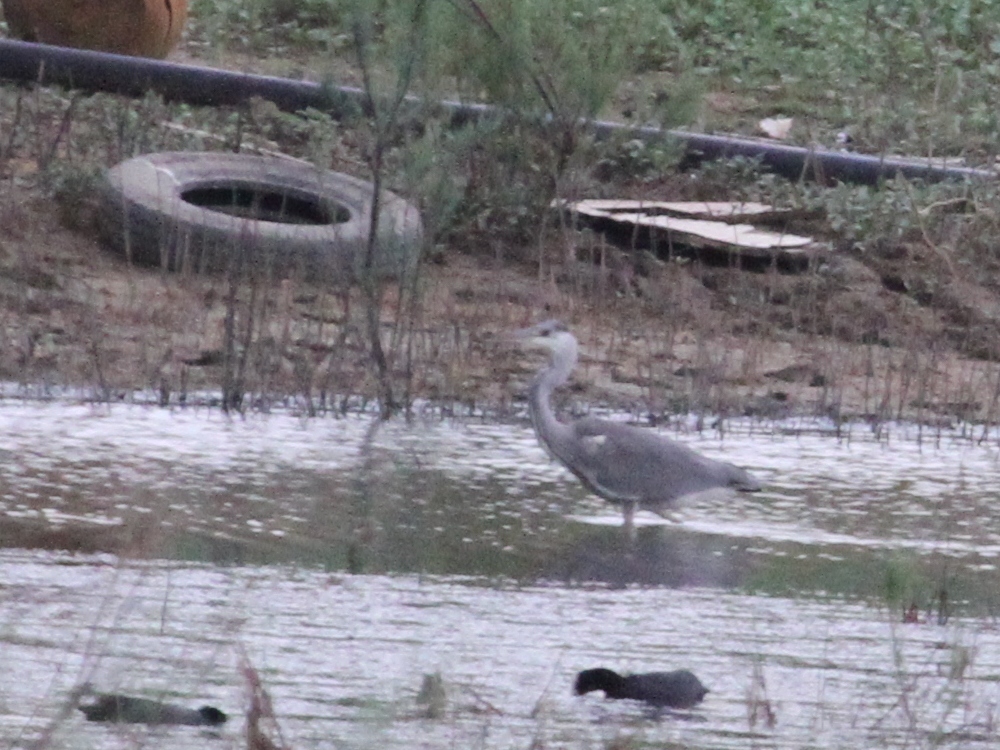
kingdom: Animalia
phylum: Chordata
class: Aves
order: Pelecaniformes
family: Ardeidae
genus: Ardea
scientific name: Ardea cinerea
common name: Grey heron
